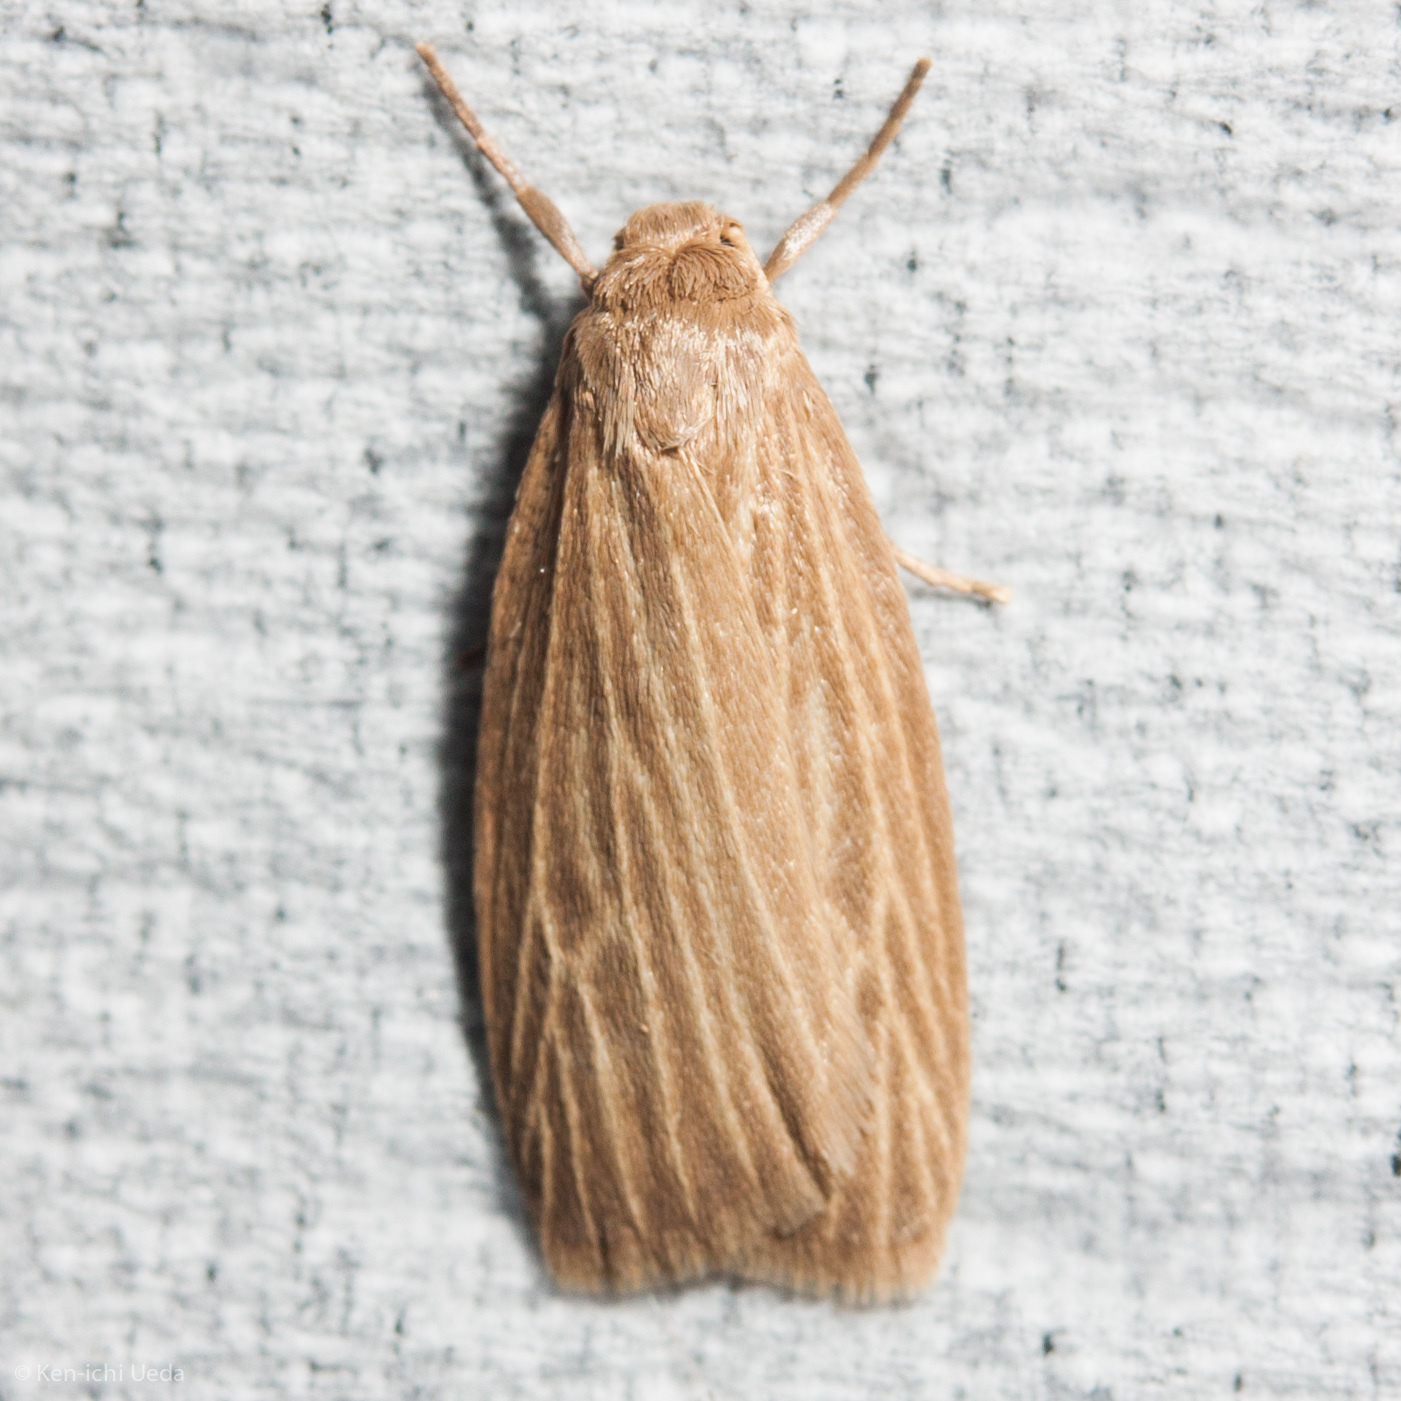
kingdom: Animalia
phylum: Arthropoda
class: Insecta
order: Lepidoptera
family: Erebidae
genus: Crambidia
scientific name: Crambidia pallida
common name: Pale lichen moth
